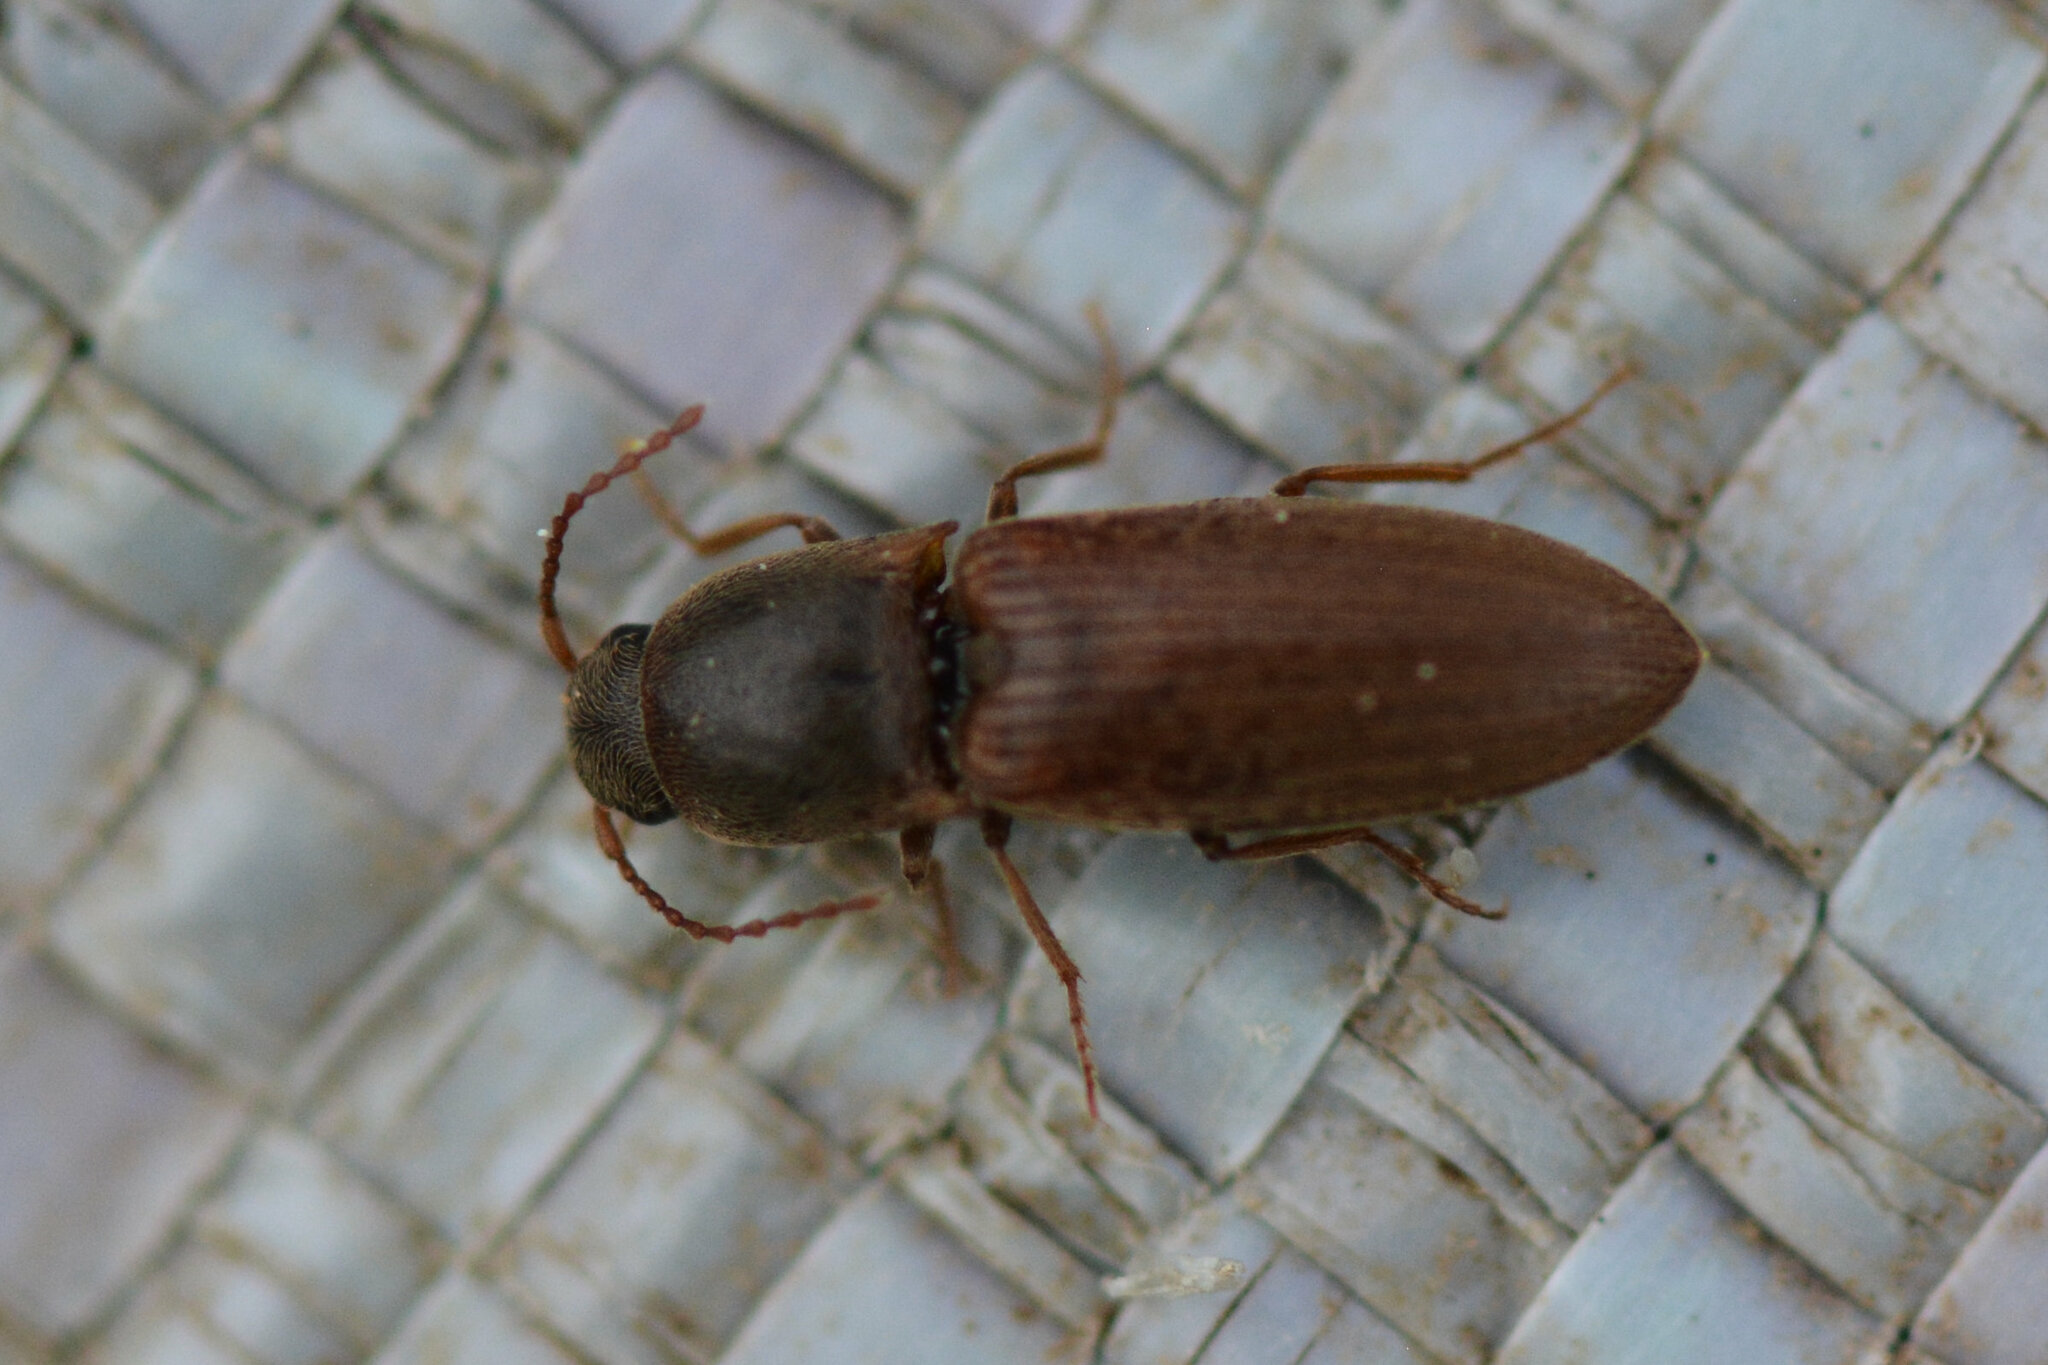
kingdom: Animalia
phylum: Arthropoda
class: Insecta
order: Coleoptera
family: Elateridae
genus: Agriotes
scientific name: Agriotes sputator
